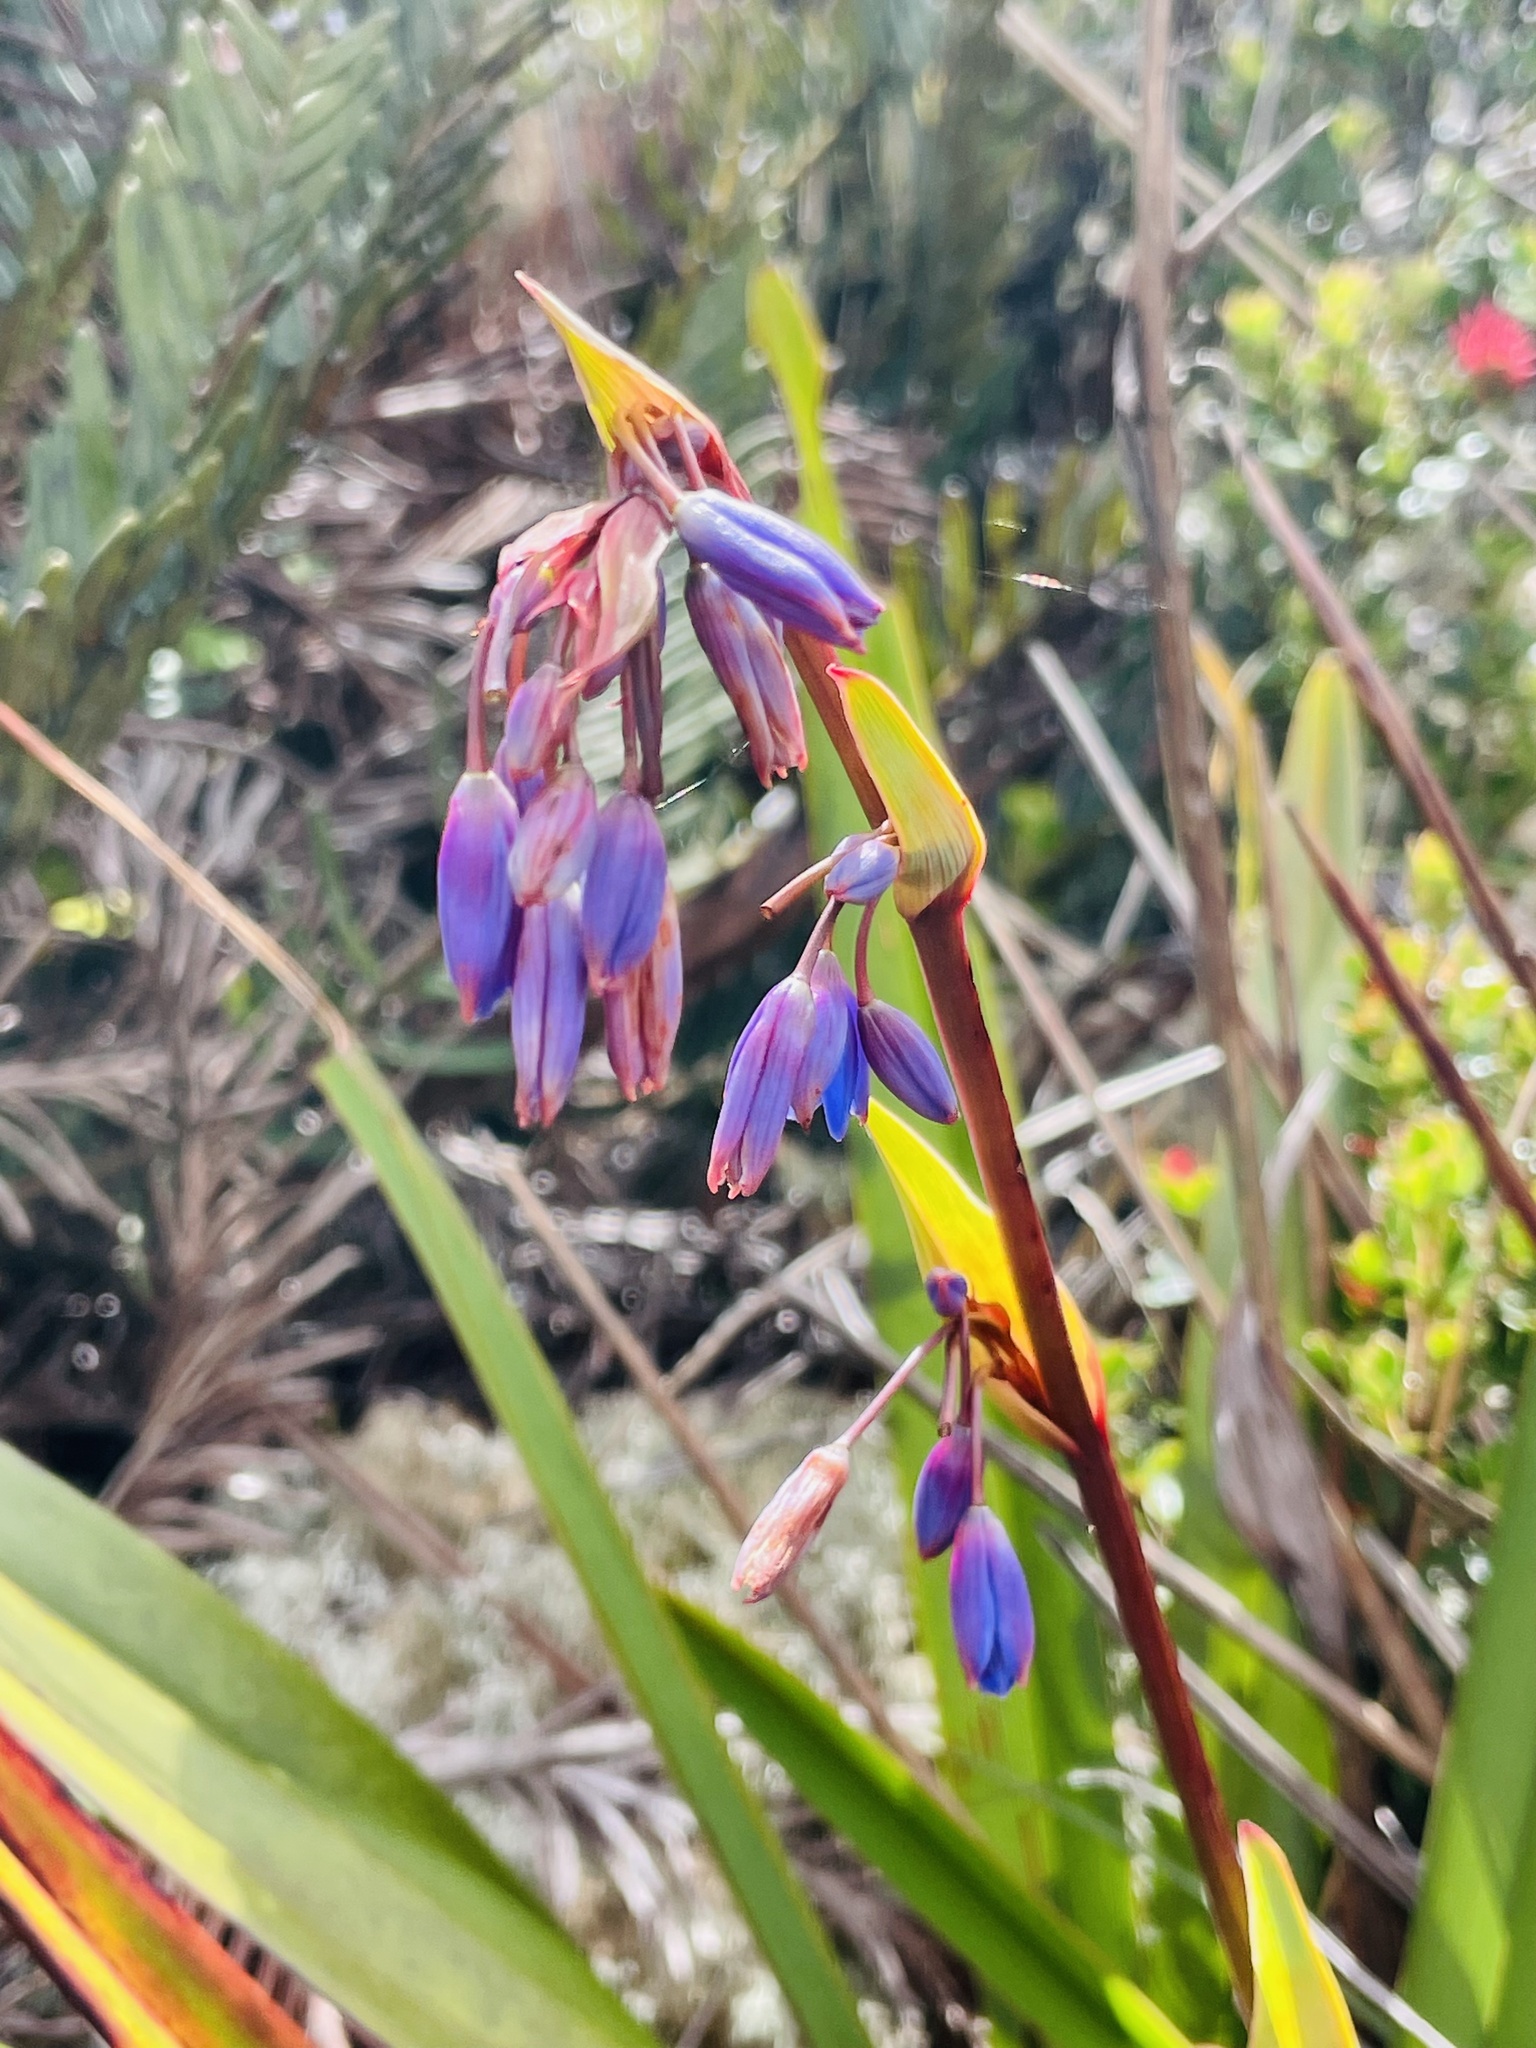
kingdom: Plantae
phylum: Tracheophyta
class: Liliopsida
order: Asparagales
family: Asphodelaceae
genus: Excremis
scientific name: Excremis coarctata
